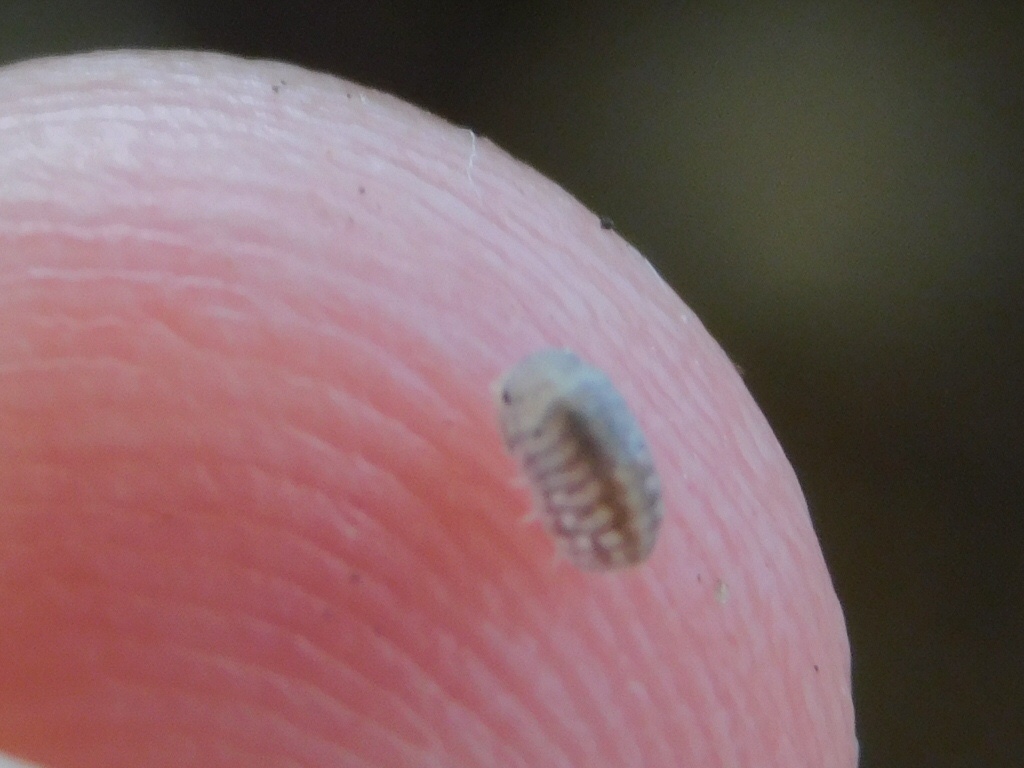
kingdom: Animalia
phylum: Arthropoda
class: Malacostraca
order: Isopoda
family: Armadillidae
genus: Venezillo
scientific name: Venezillo parvus
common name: Pillbug
